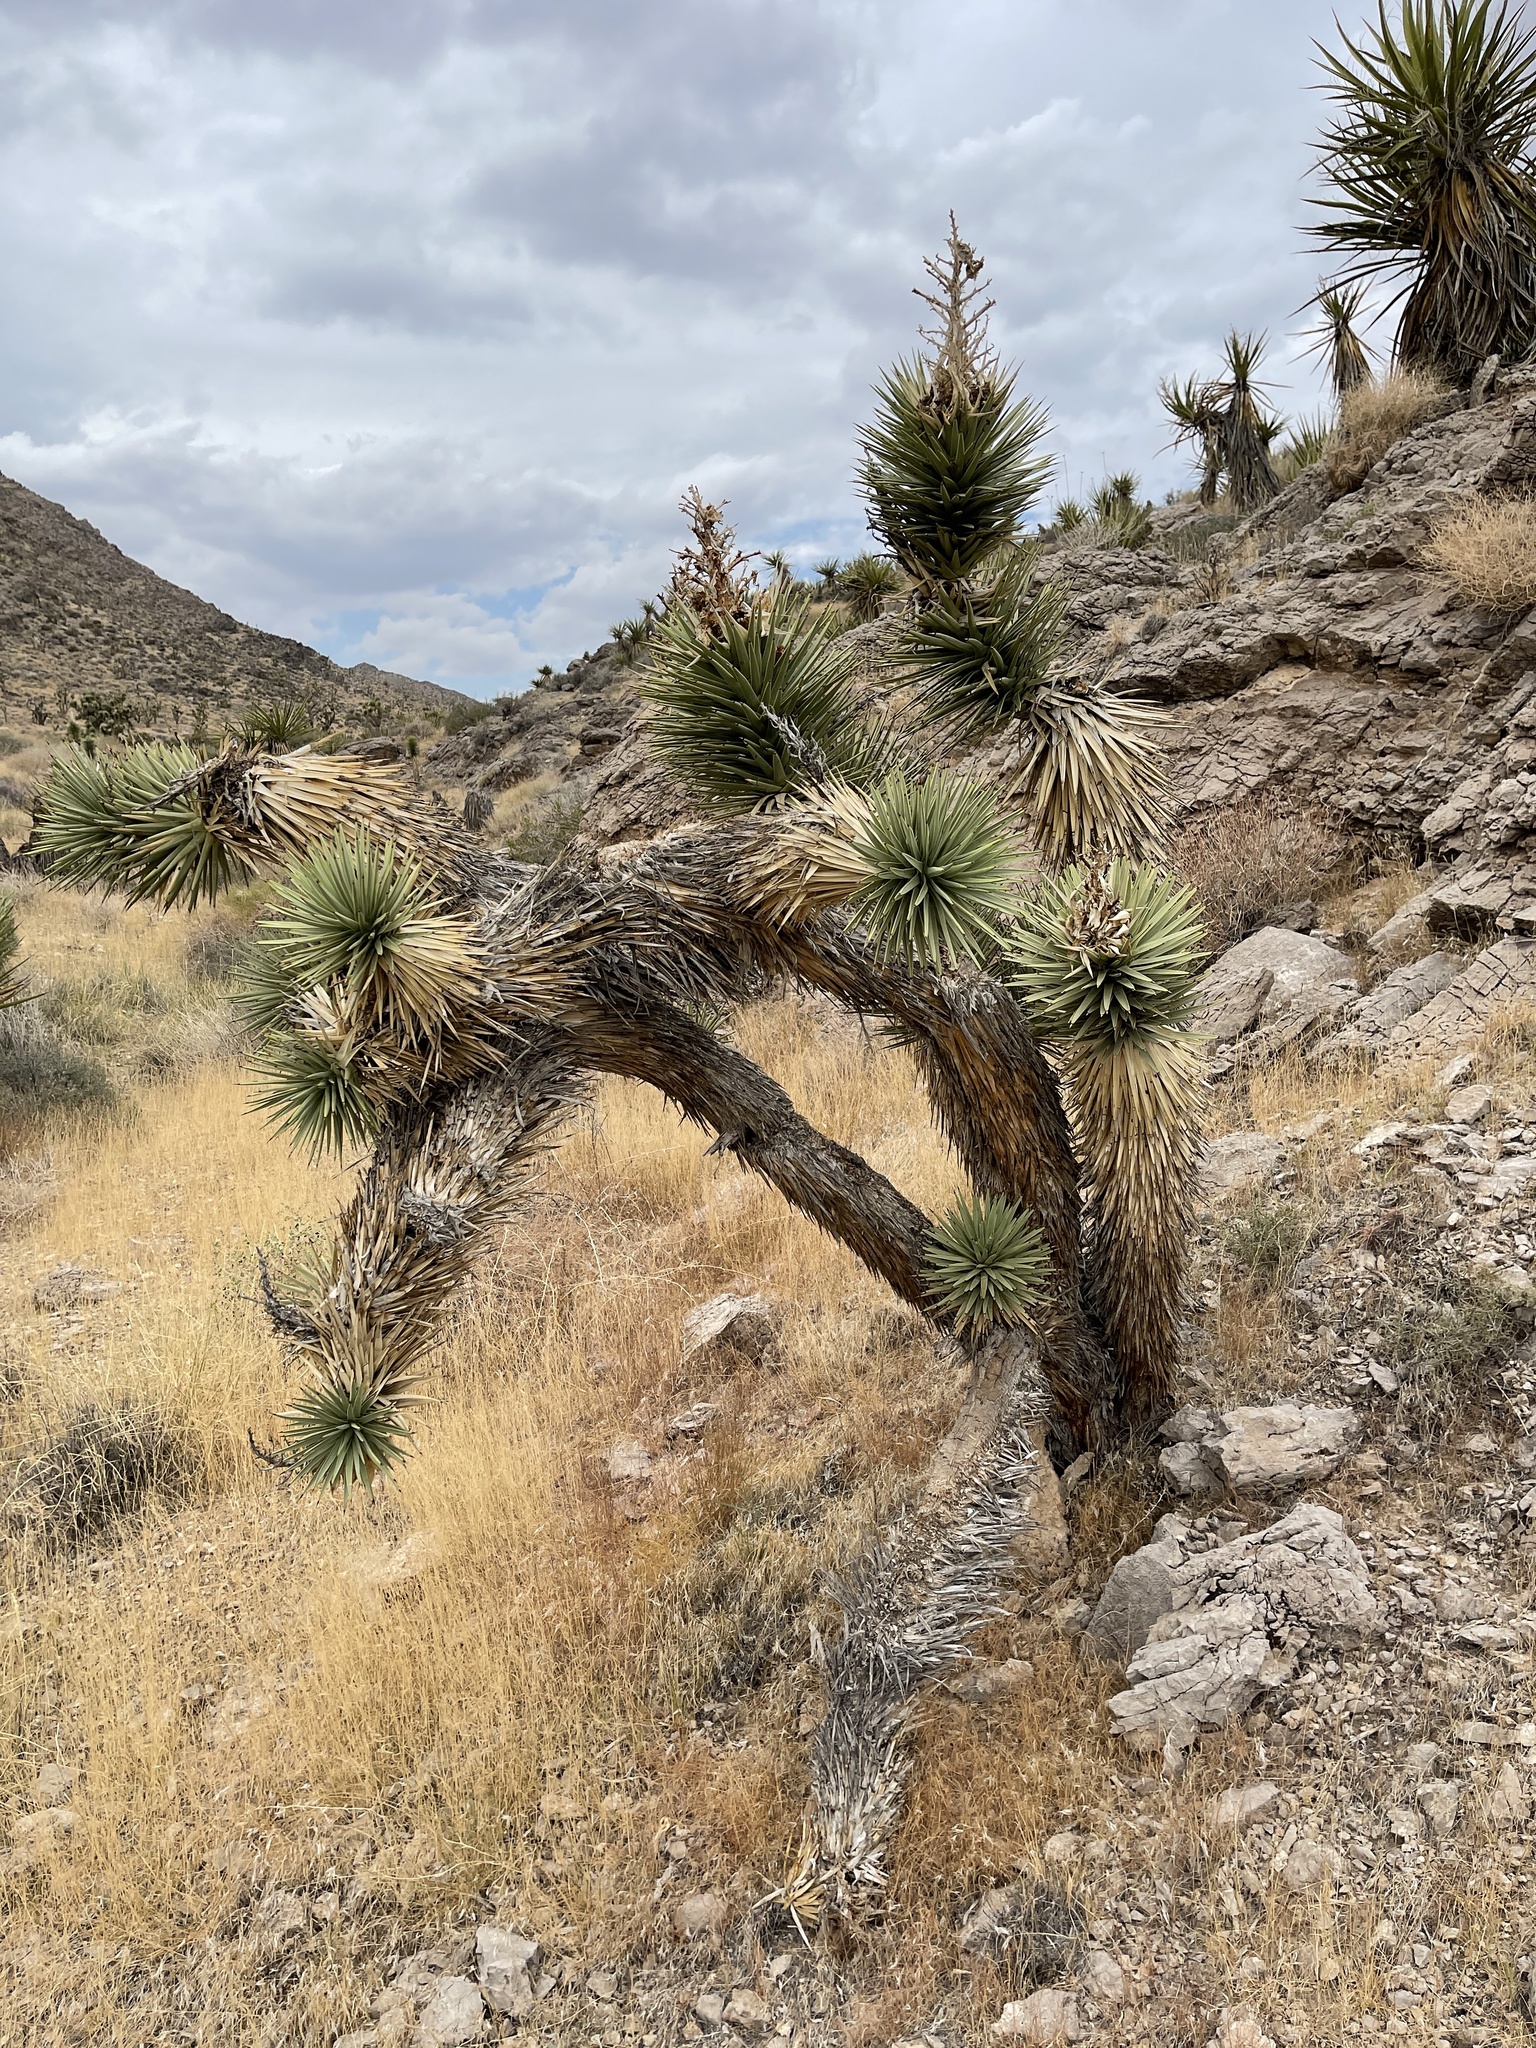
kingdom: Plantae
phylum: Tracheophyta
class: Liliopsida
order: Asparagales
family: Asparagaceae
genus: Yucca
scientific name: Yucca brevifolia
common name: Joshua tree
